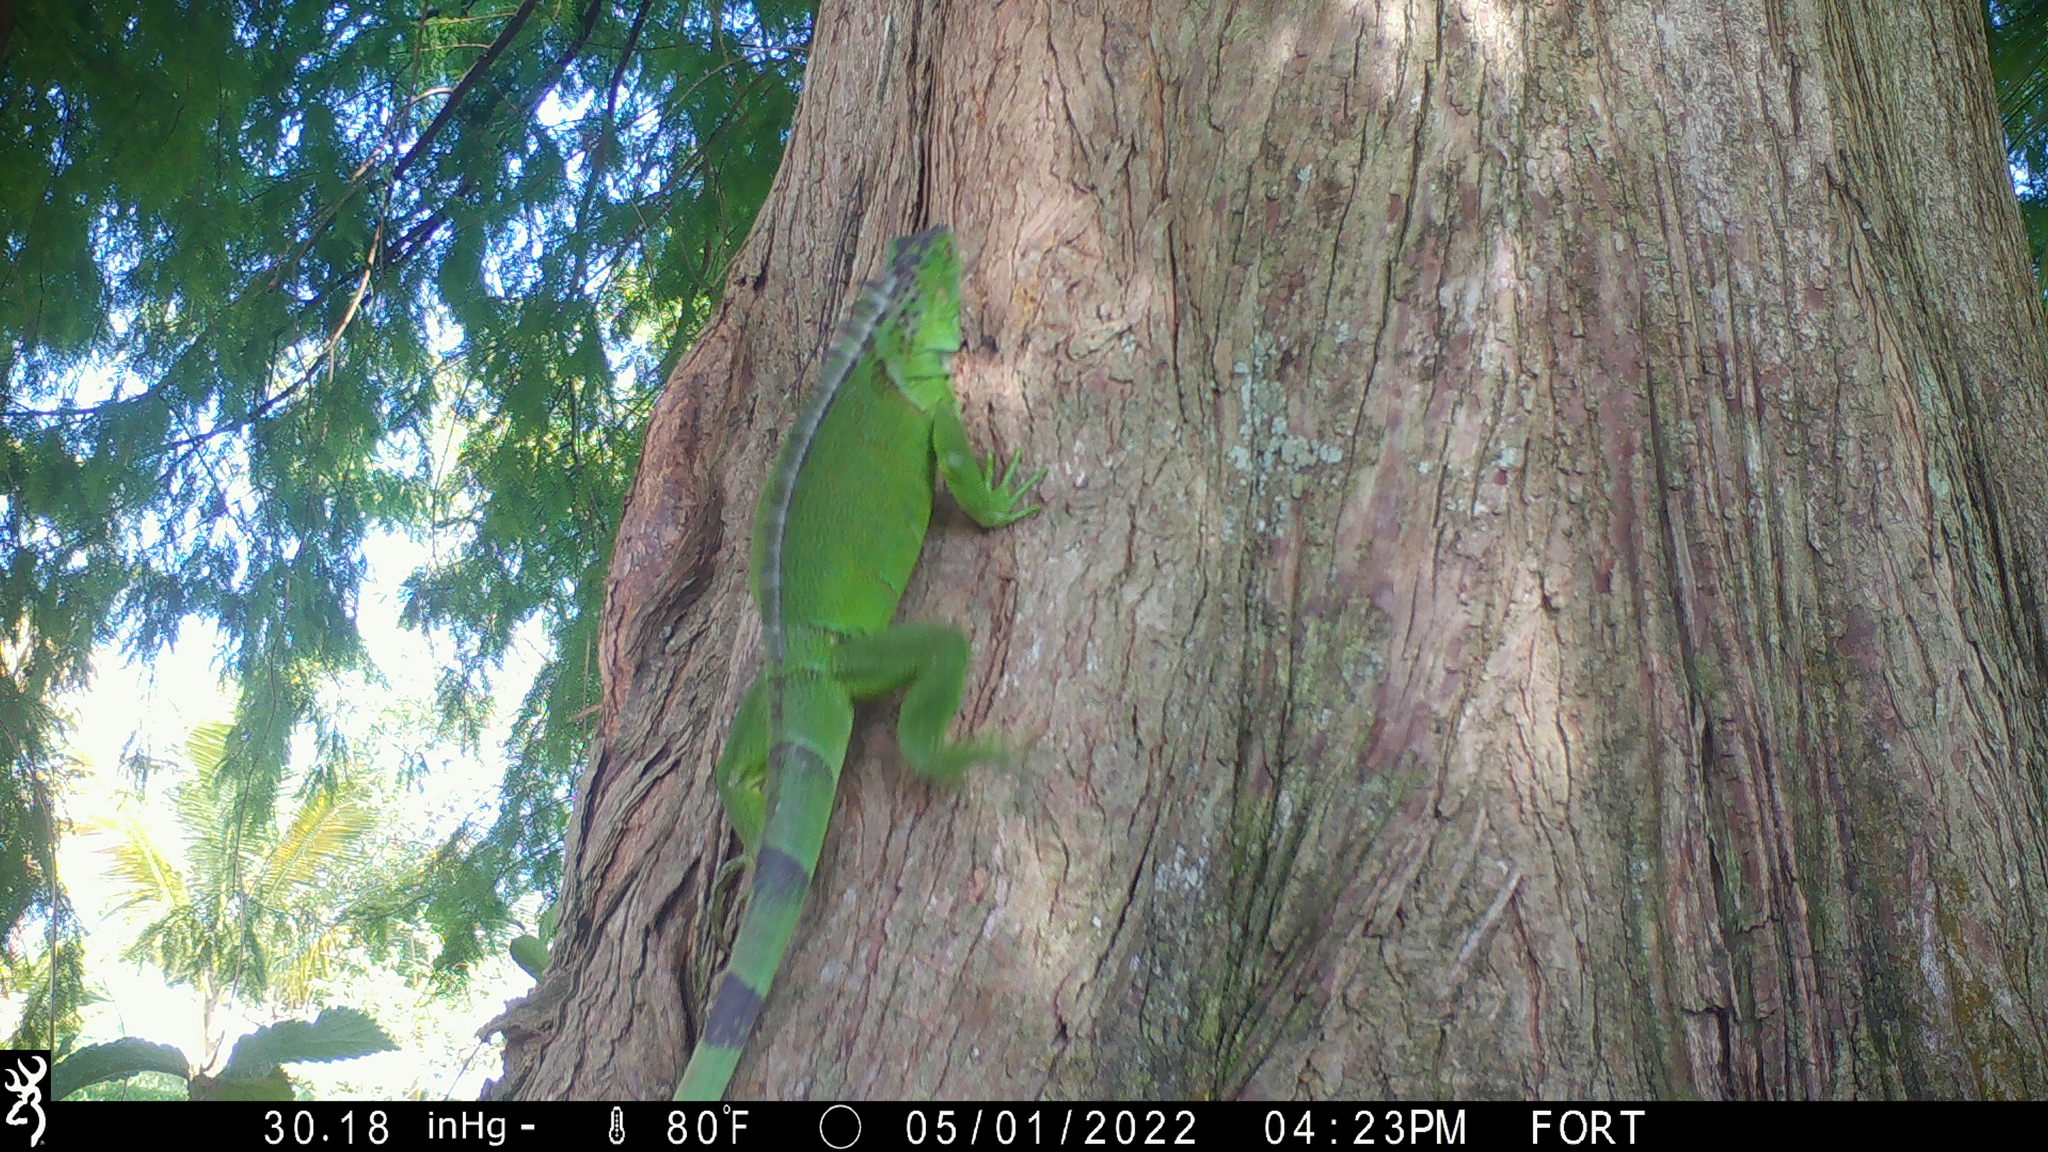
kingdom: Animalia
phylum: Chordata
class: Squamata
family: Iguanidae
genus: Iguana
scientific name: Iguana iguana
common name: Green iguana
